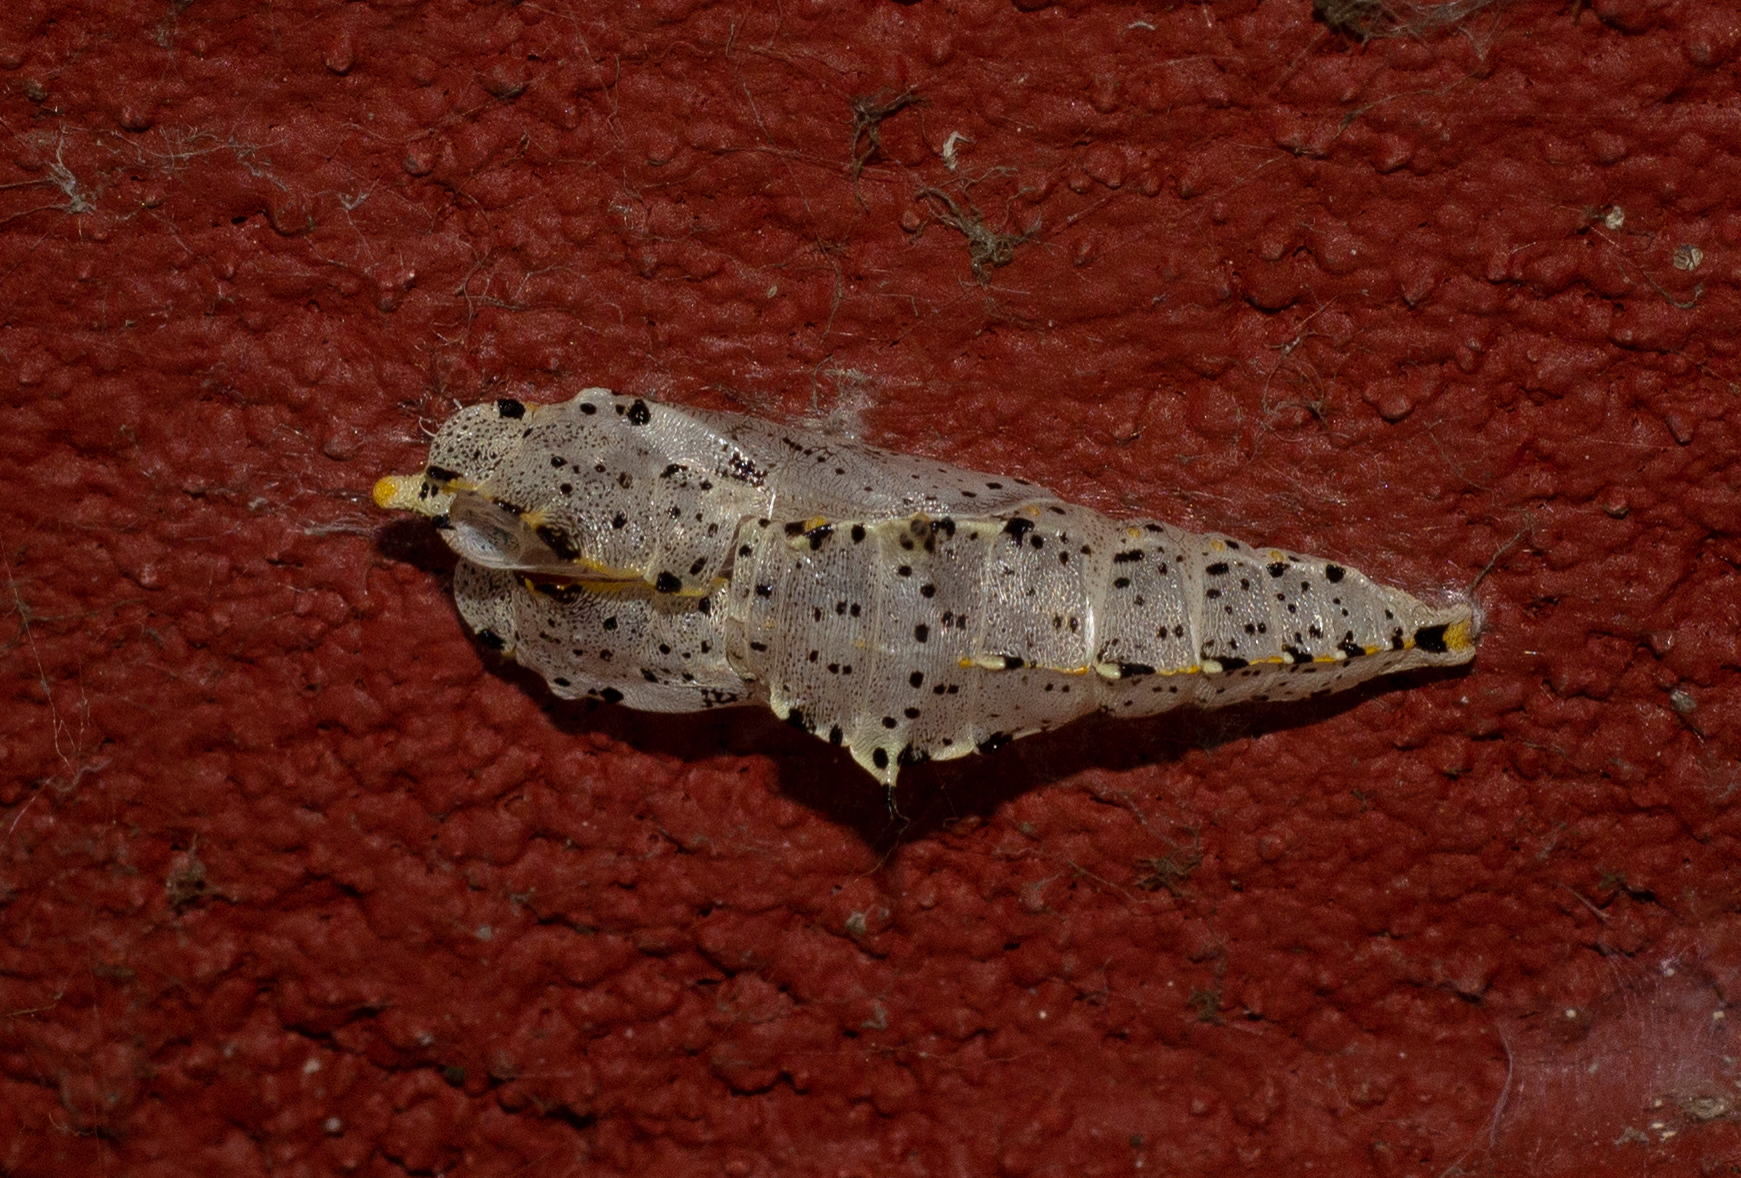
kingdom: Animalia
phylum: Arthropoda
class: Insecta
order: Lepidoptera
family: Pieridae
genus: Pieris
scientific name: Pieris brassicae
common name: Large white
